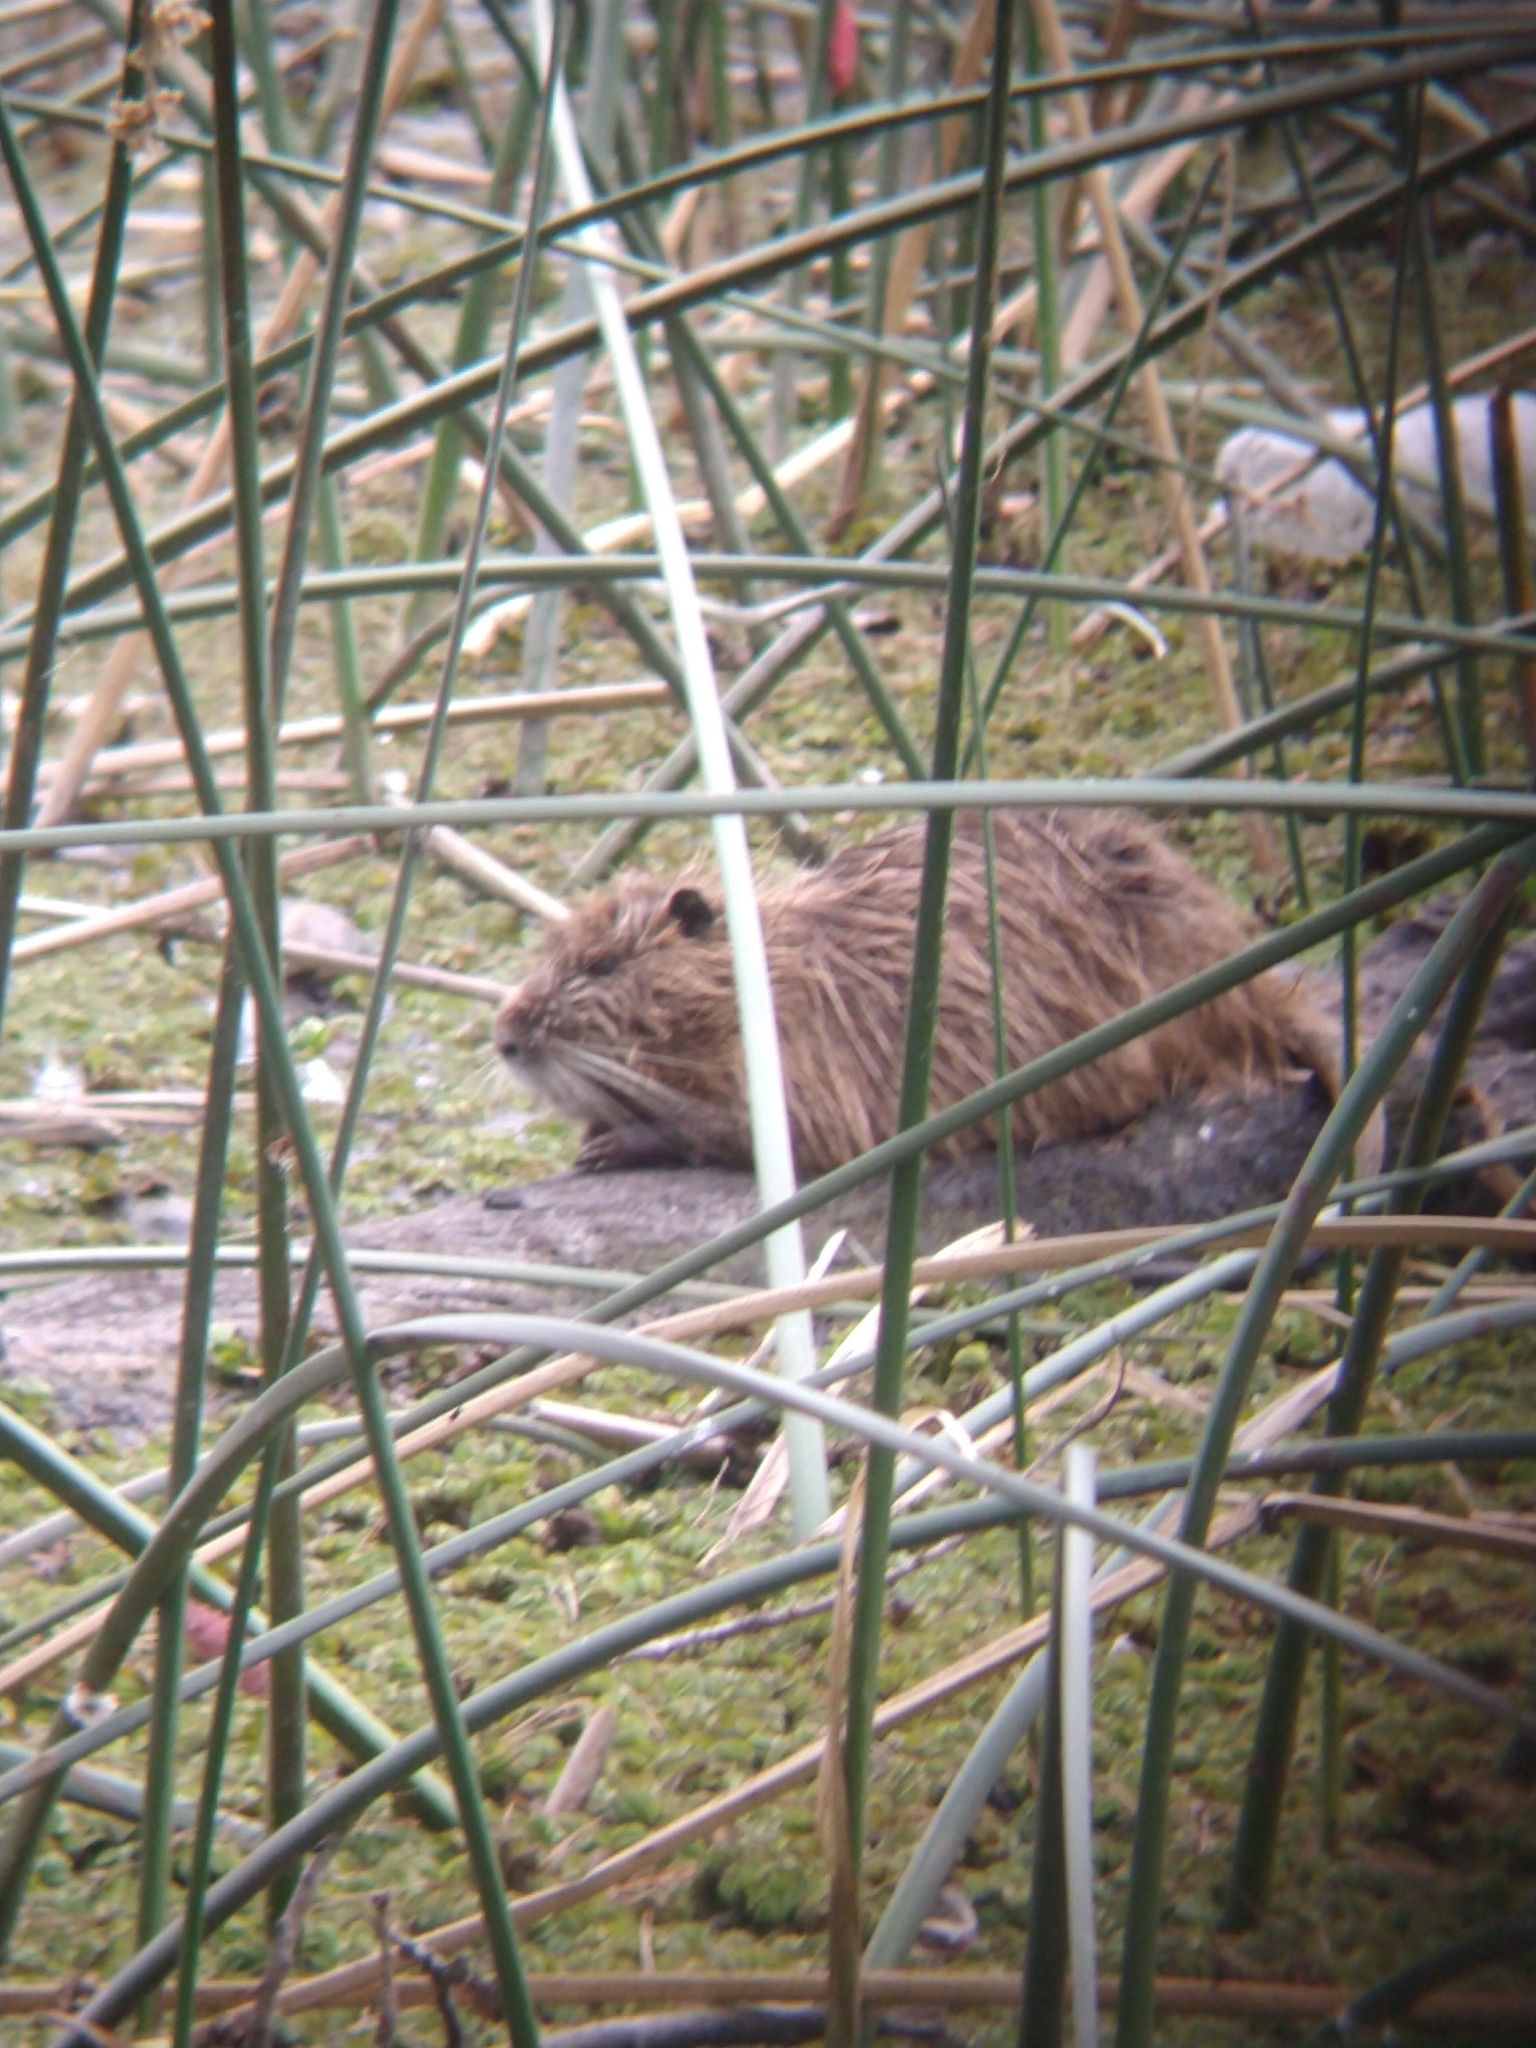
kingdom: Animalia
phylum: Chordata
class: Mammalia
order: Rodentia
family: Myocastoridae
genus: Myocastor
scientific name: Myocastor coypus
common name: Coypu
